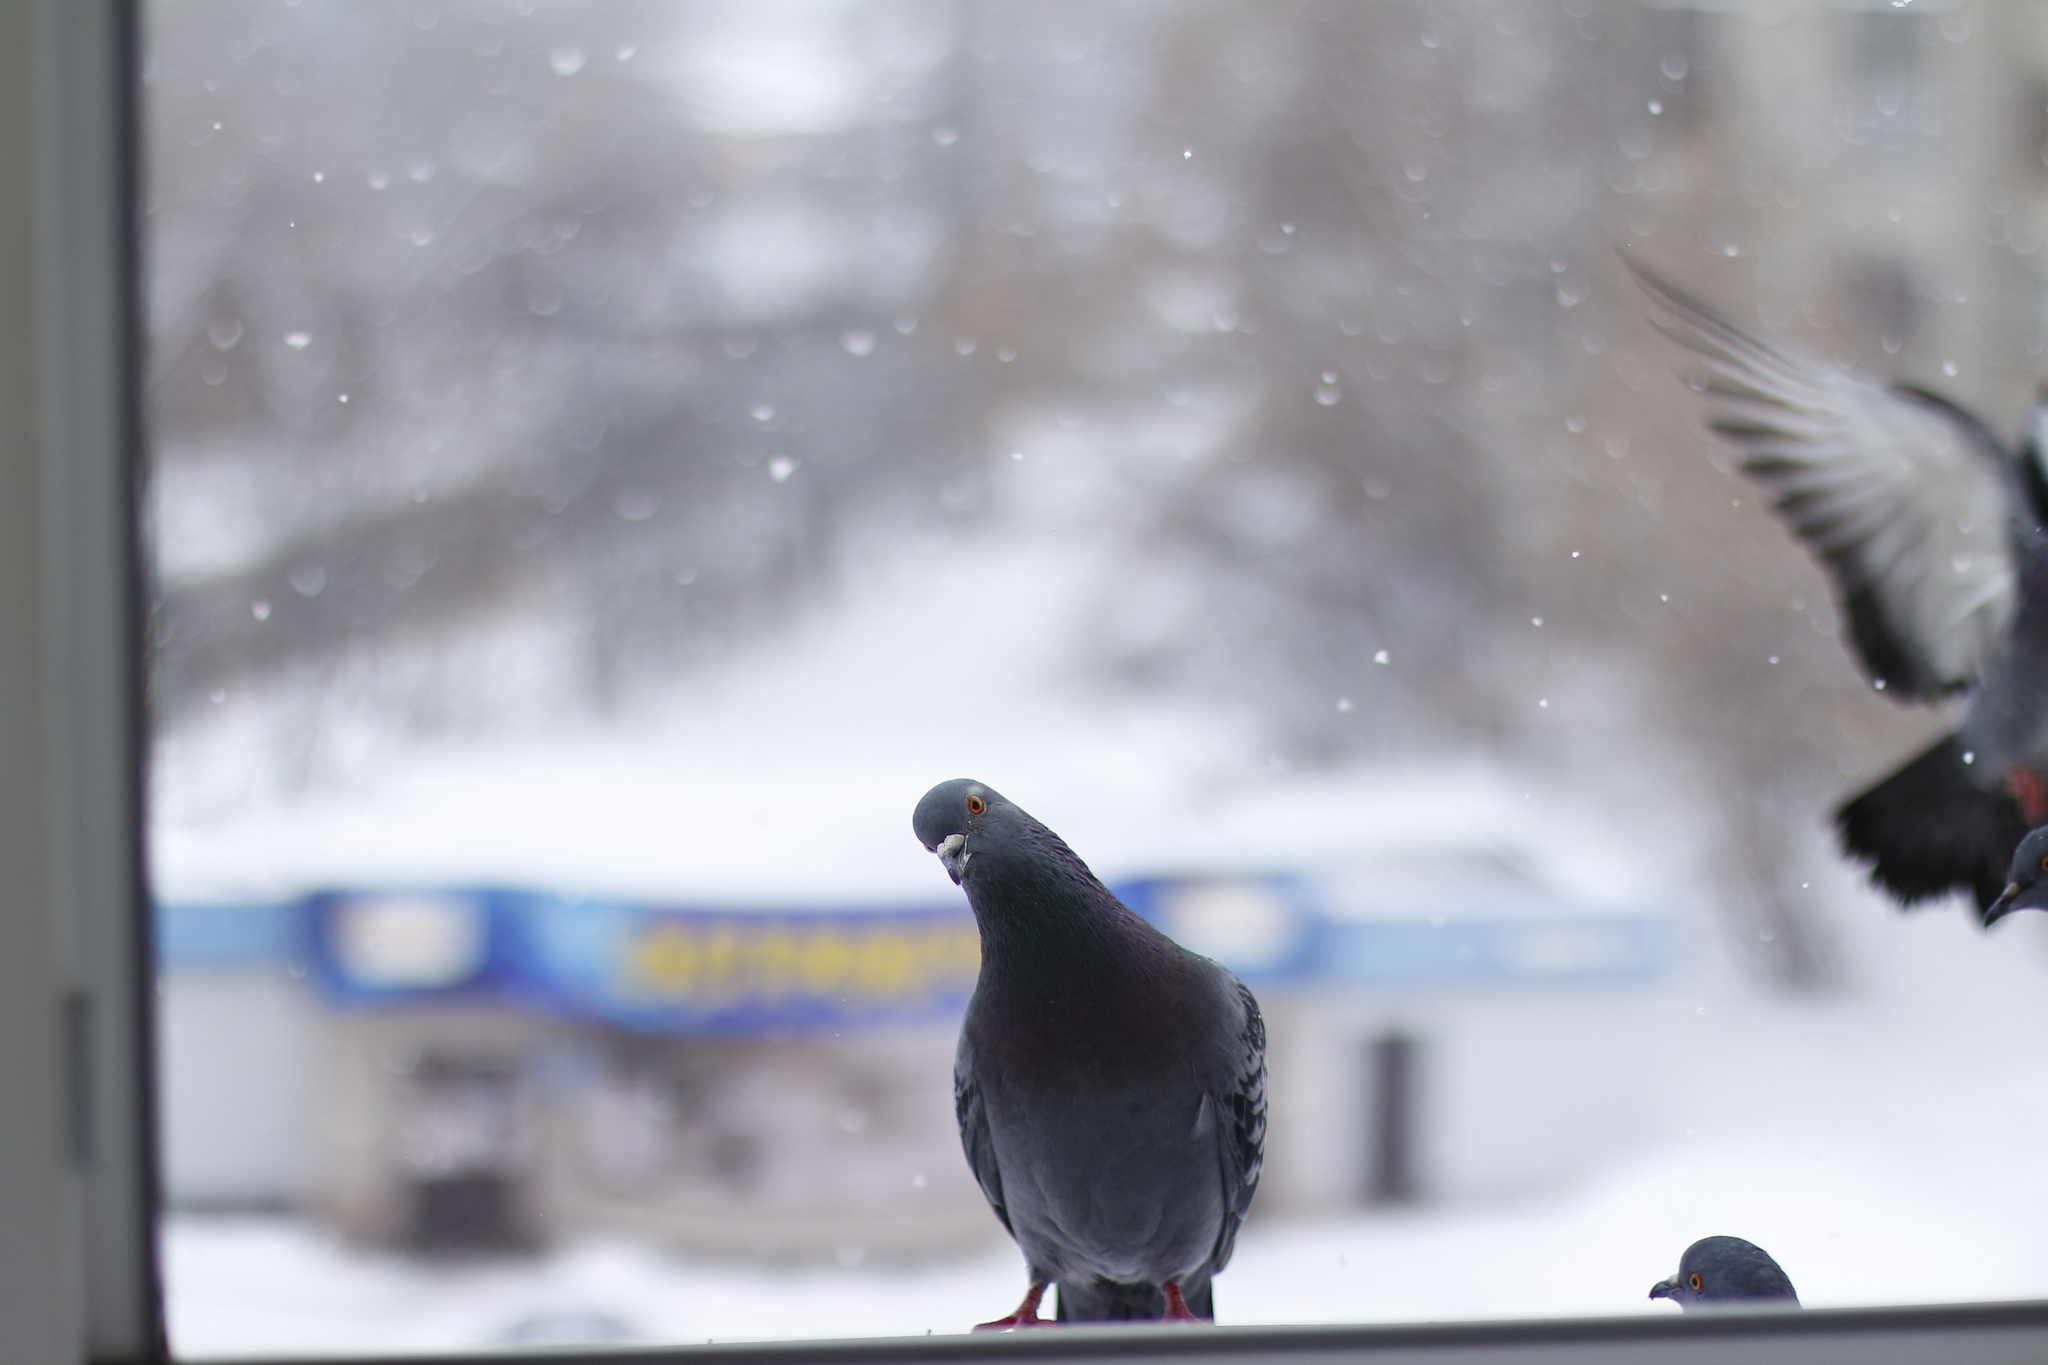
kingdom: Animalia
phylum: Chordata
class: Aves
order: Columbiformes
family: Columbidae
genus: Columba
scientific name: Columba livia
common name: Rock pigeon
